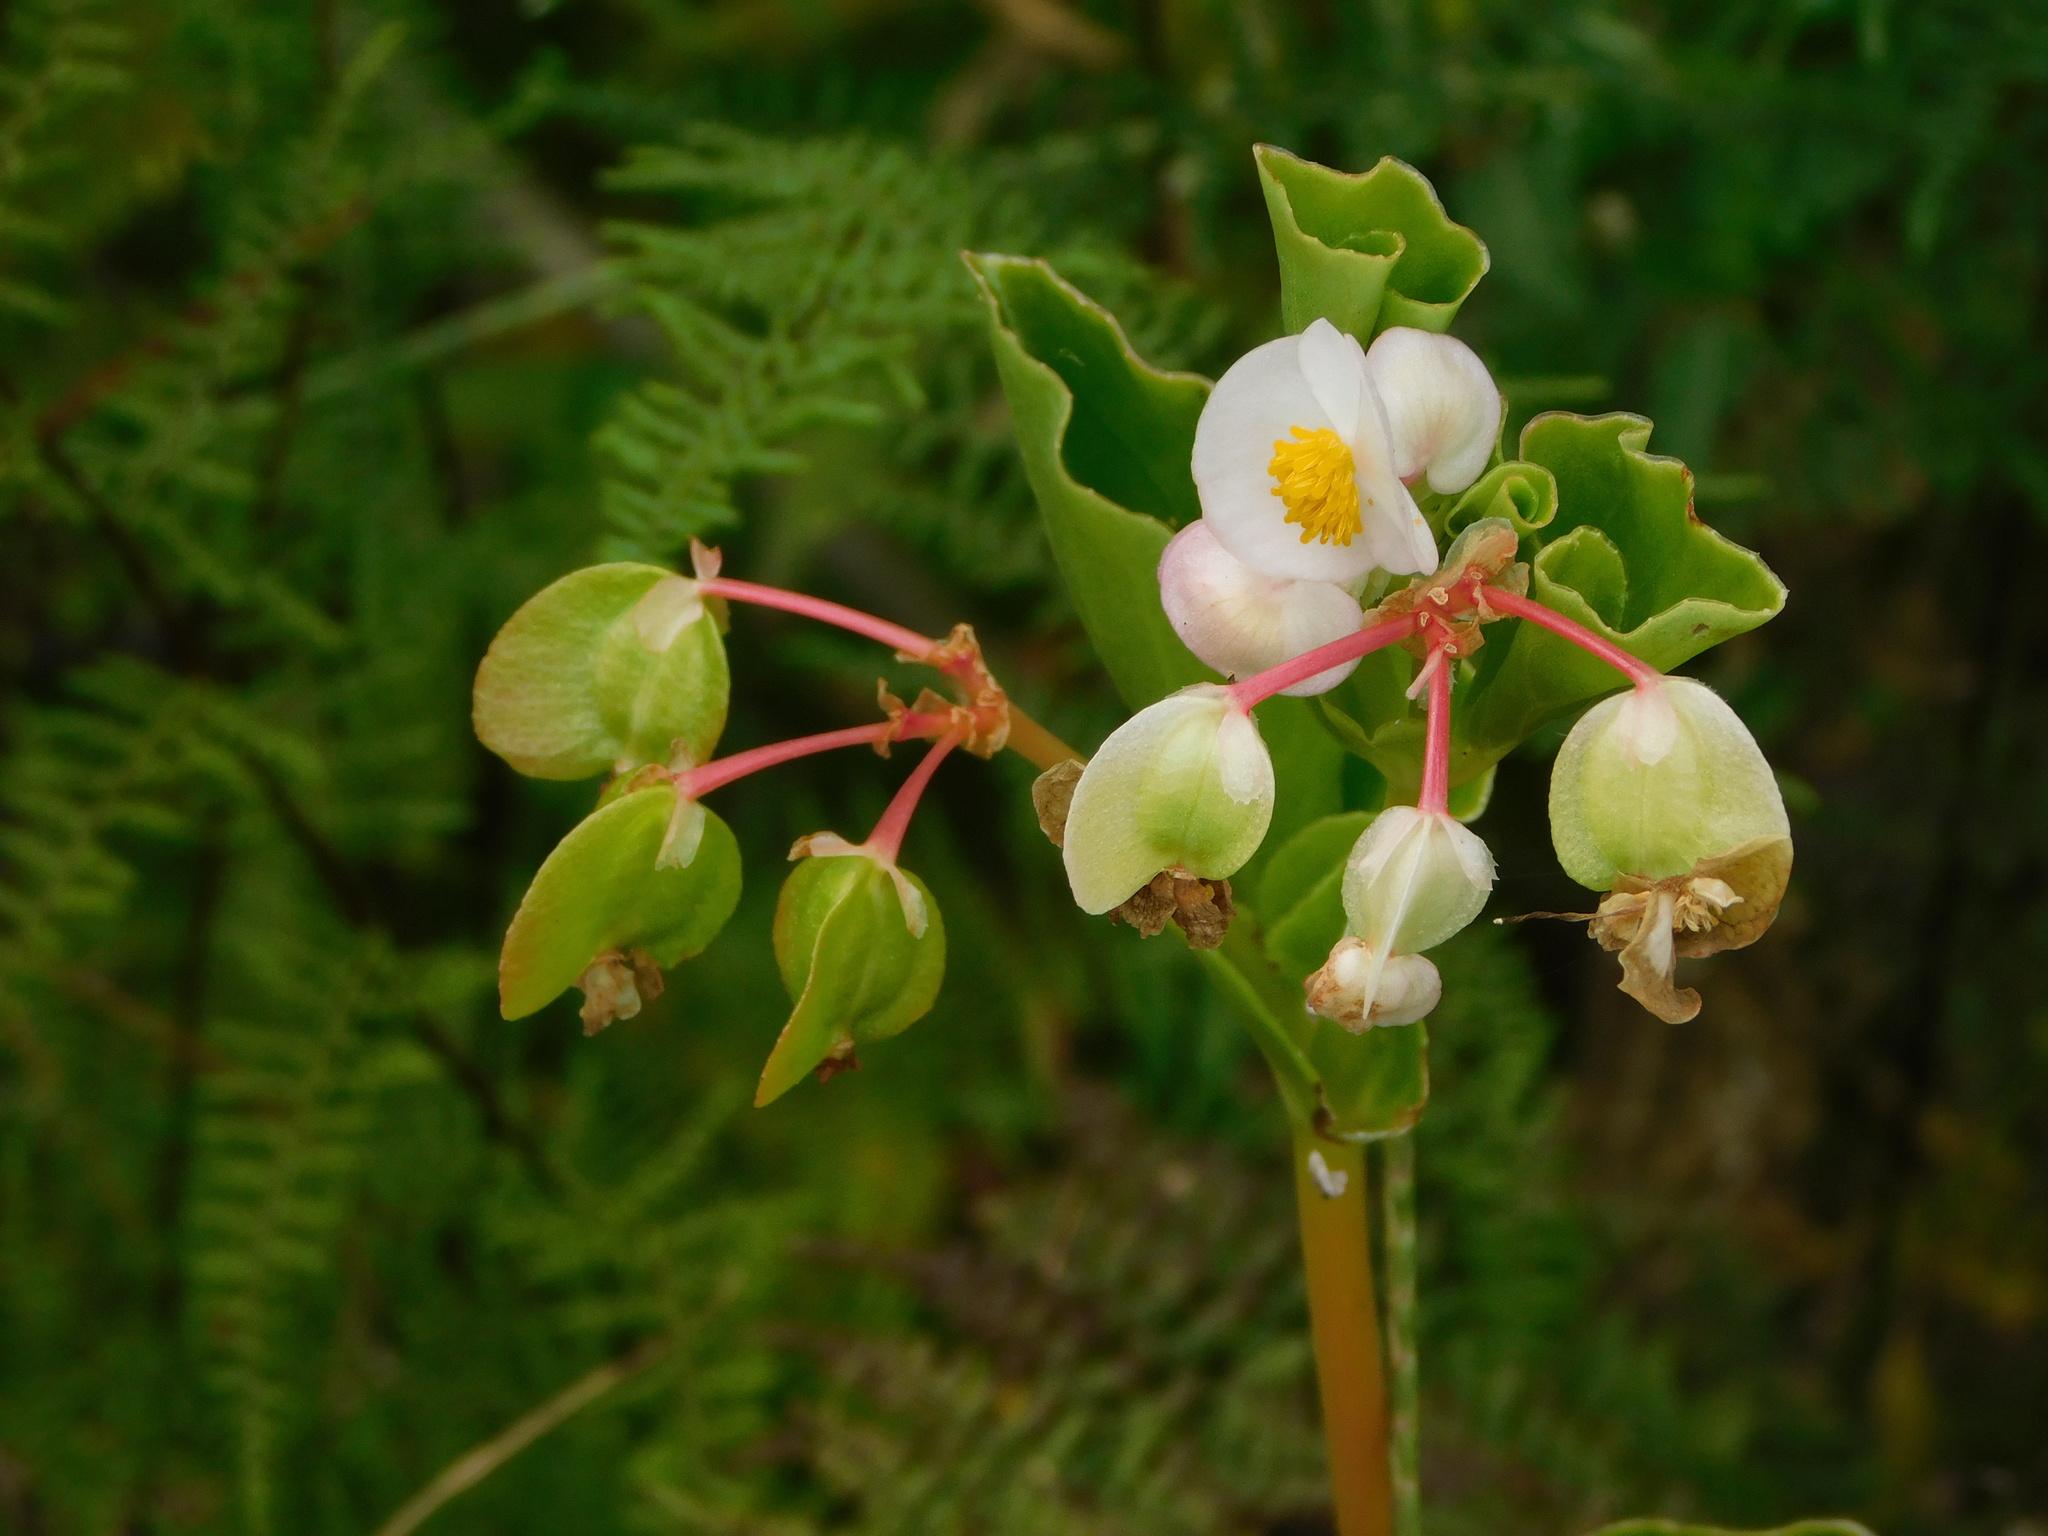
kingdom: Plantae
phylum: Tracheophyta
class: Magnoliopsida
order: Cucurbitales
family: Begoniaceae
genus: Begonia
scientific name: Begonia cucullata
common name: Clubbed begonia
